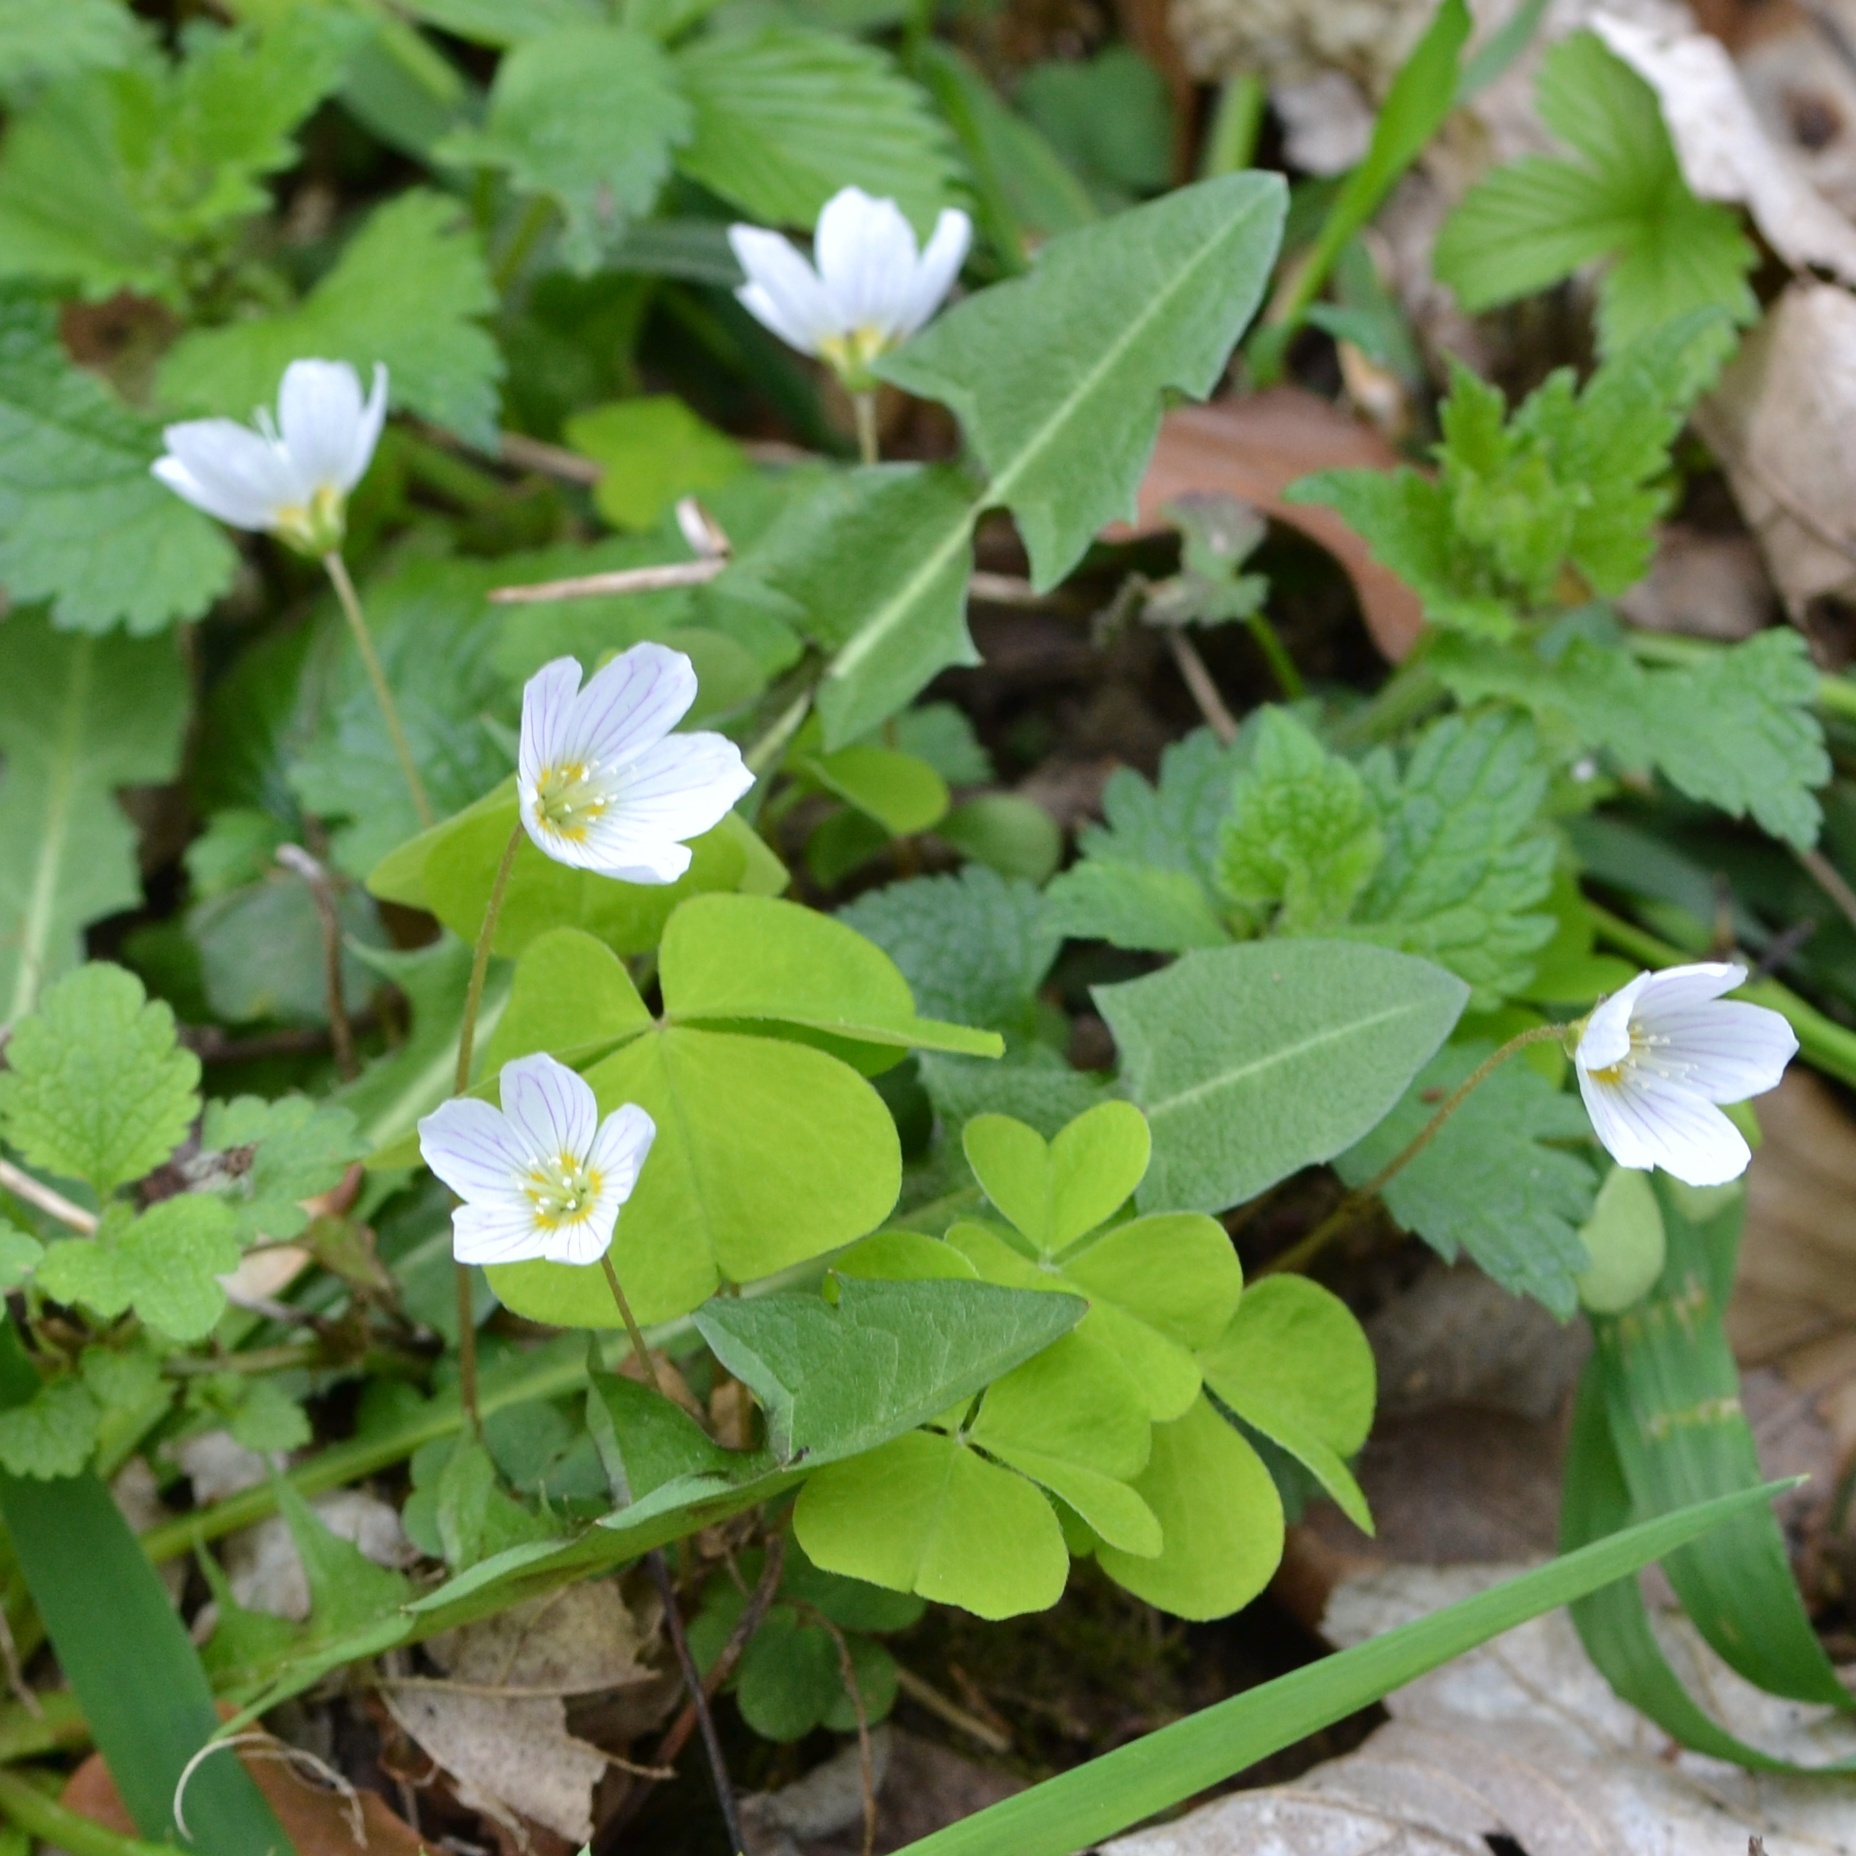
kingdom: Plantae
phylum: Tracheophyta
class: Magnoliopsida
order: Oxalidales
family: Oxalidaceae
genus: Oxalis
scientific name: Oxalis acetosella
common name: Wood-sorrel
